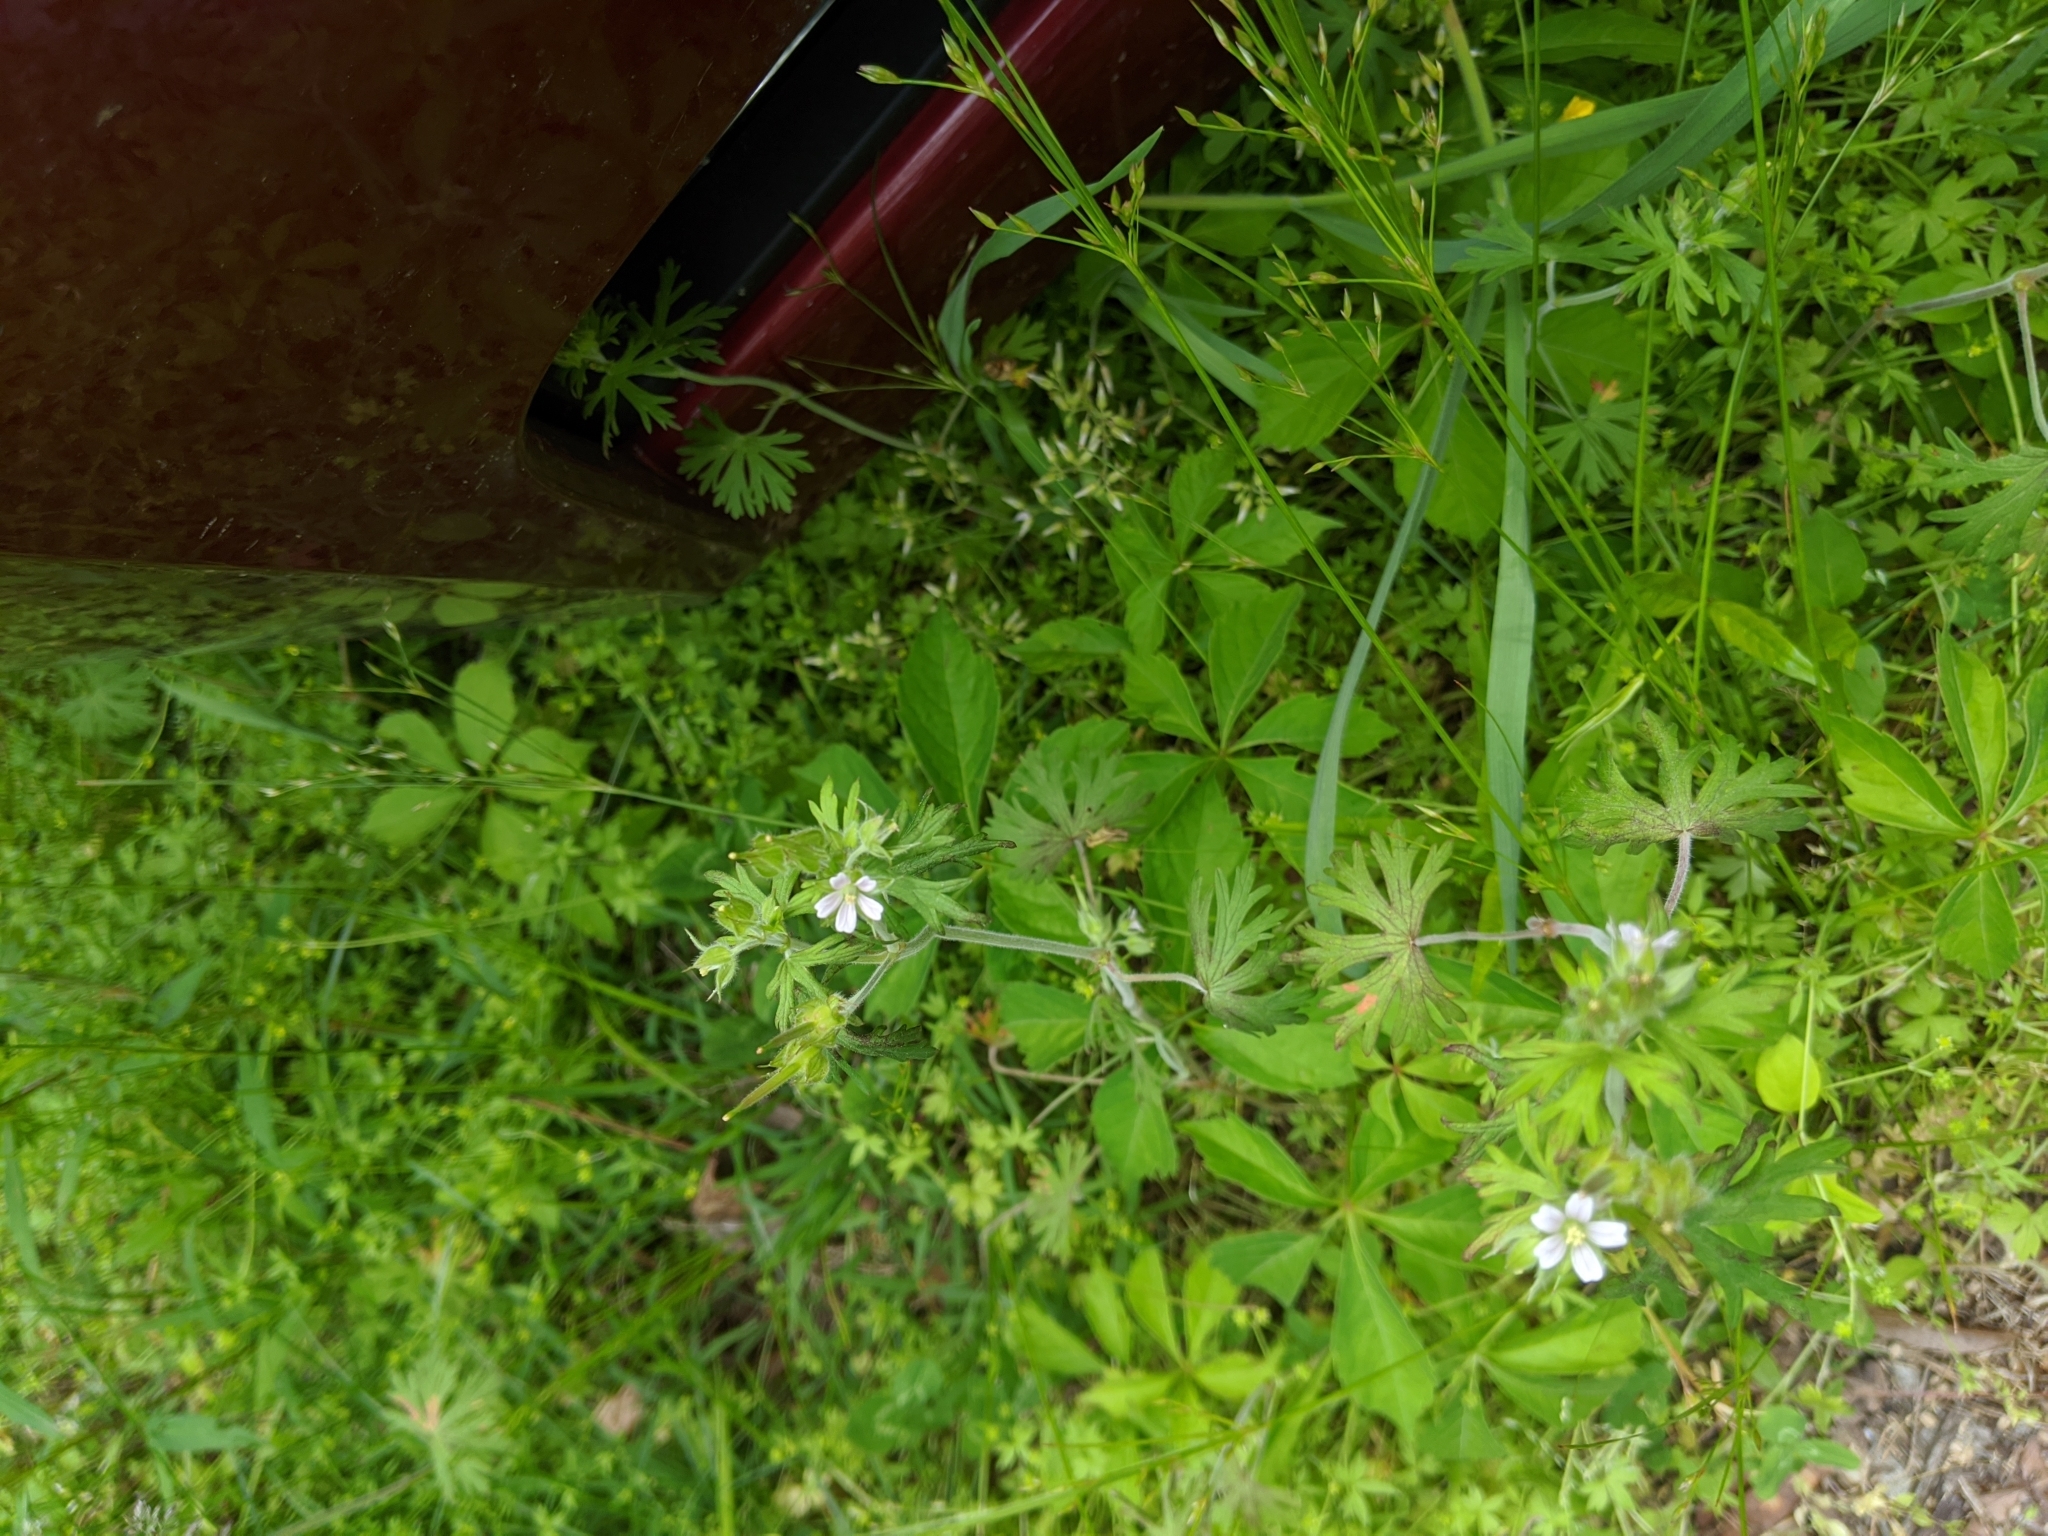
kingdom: Plantae
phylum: Tracheophyta
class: Magnoliopsida
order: Geraniales
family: Geraniaceae
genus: Geranium
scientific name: Geranium carolinianum
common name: Carolina crane's-bill
